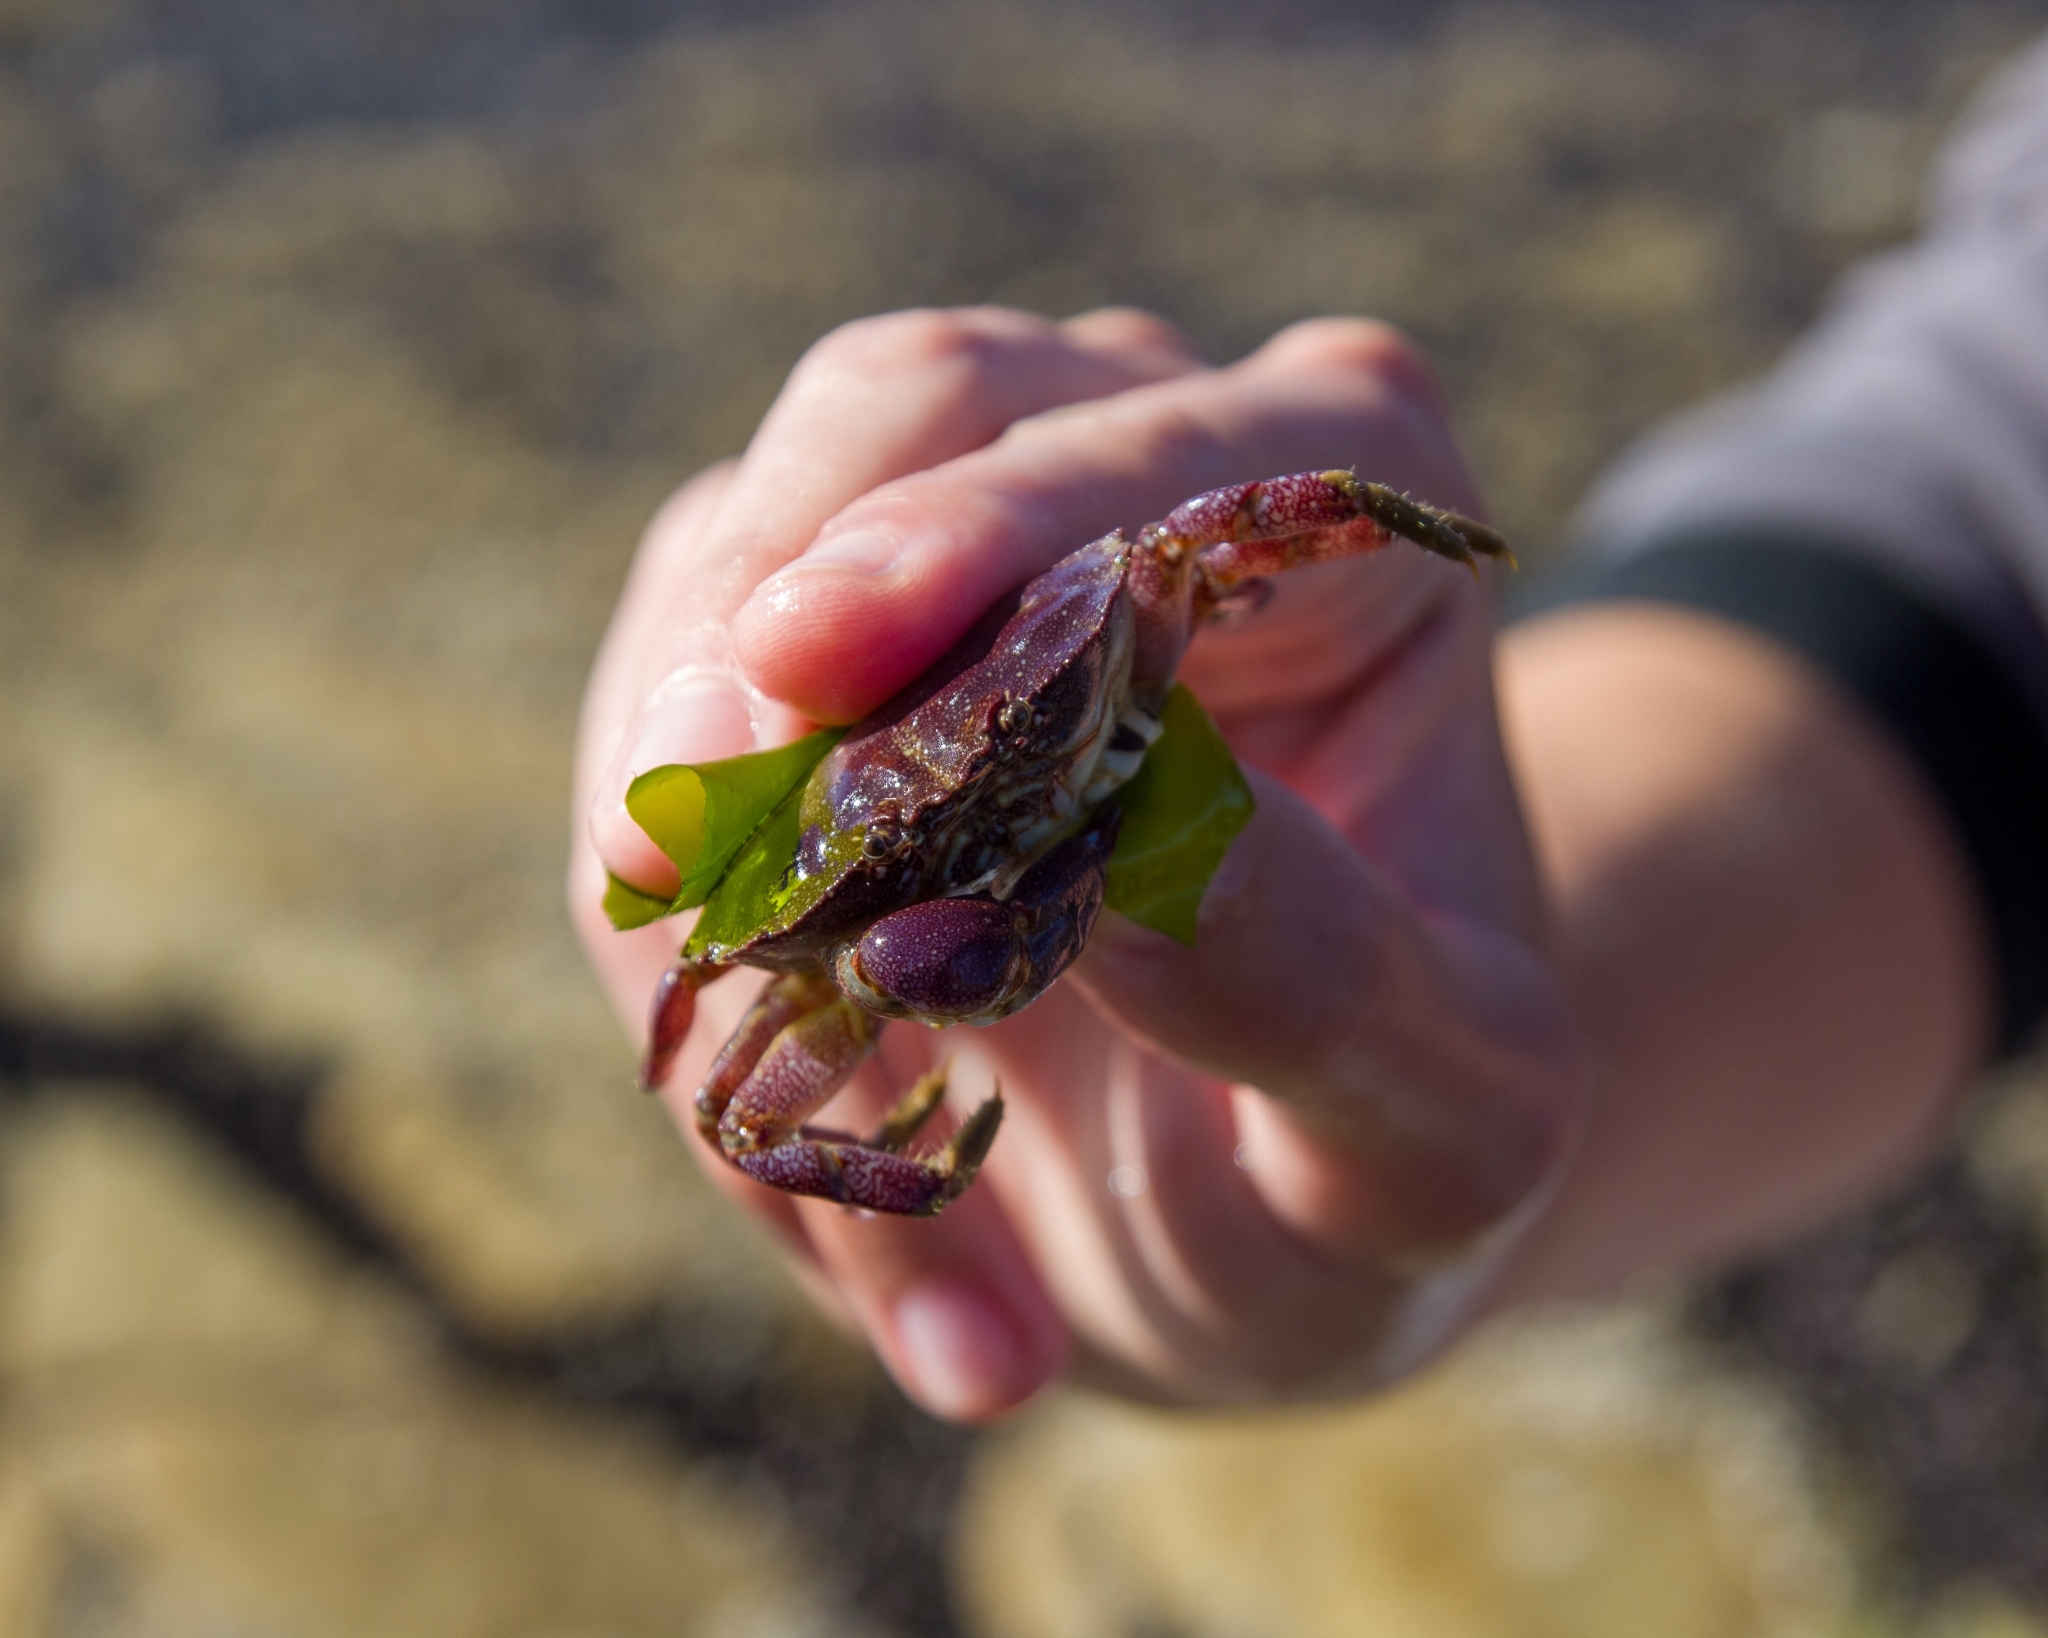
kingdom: Animalia
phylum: Arthropoda
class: Malacostraca
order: Decapoda
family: Platyxanthidae
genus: Danielethus
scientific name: Danielethus crenulatus
